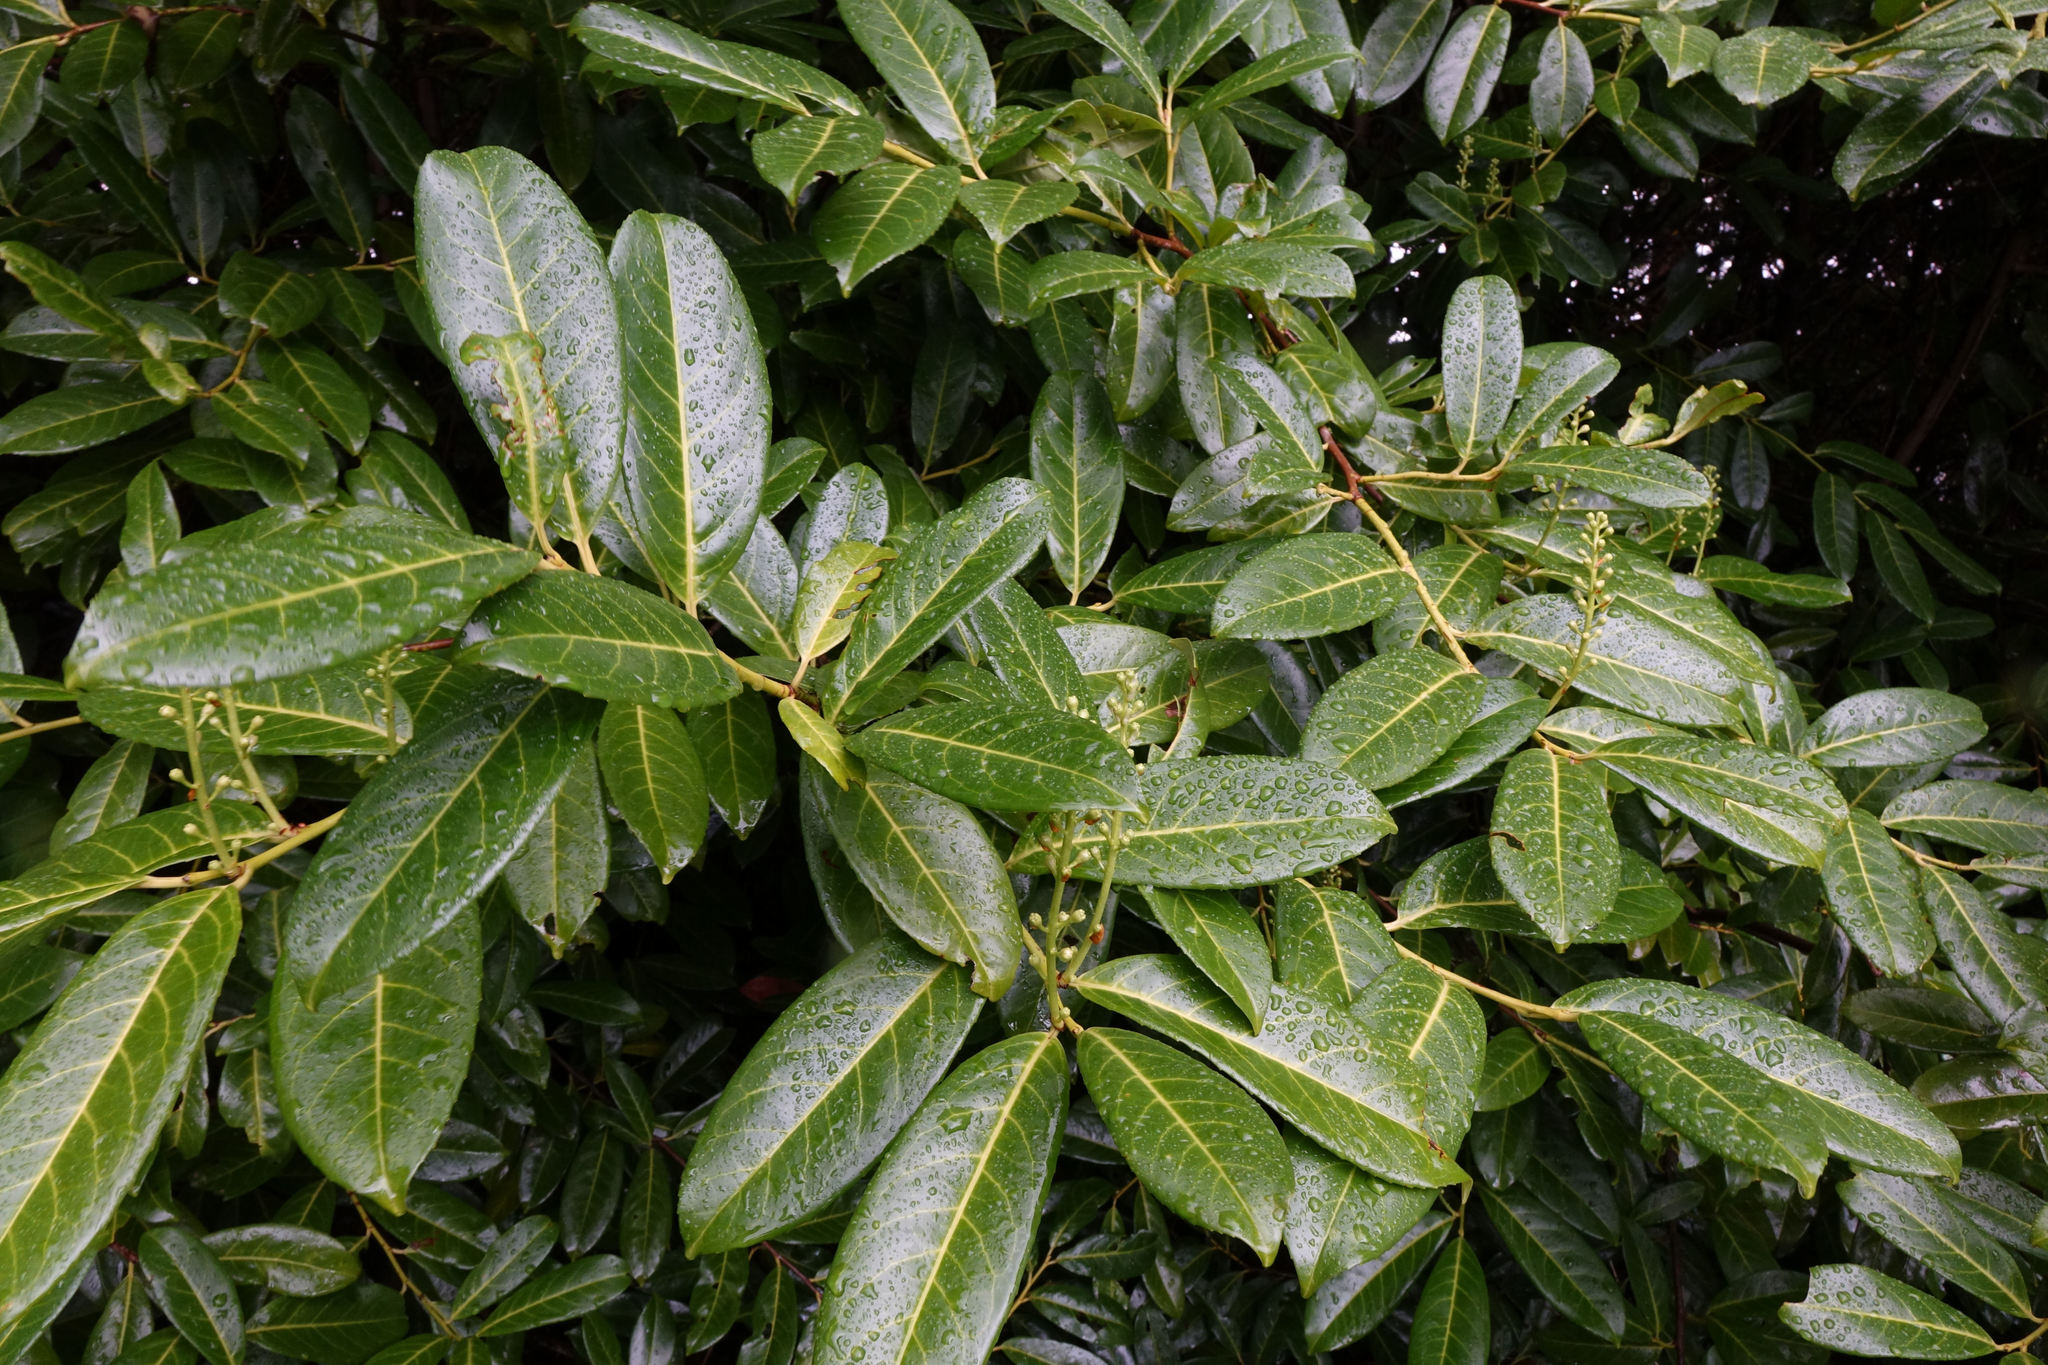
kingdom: Plantae
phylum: Tracheophyta
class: Magnoliopsida
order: Rosales
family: Rosaceae
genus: Prunus
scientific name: Prunus laurocerasus
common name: Cherry laurel
